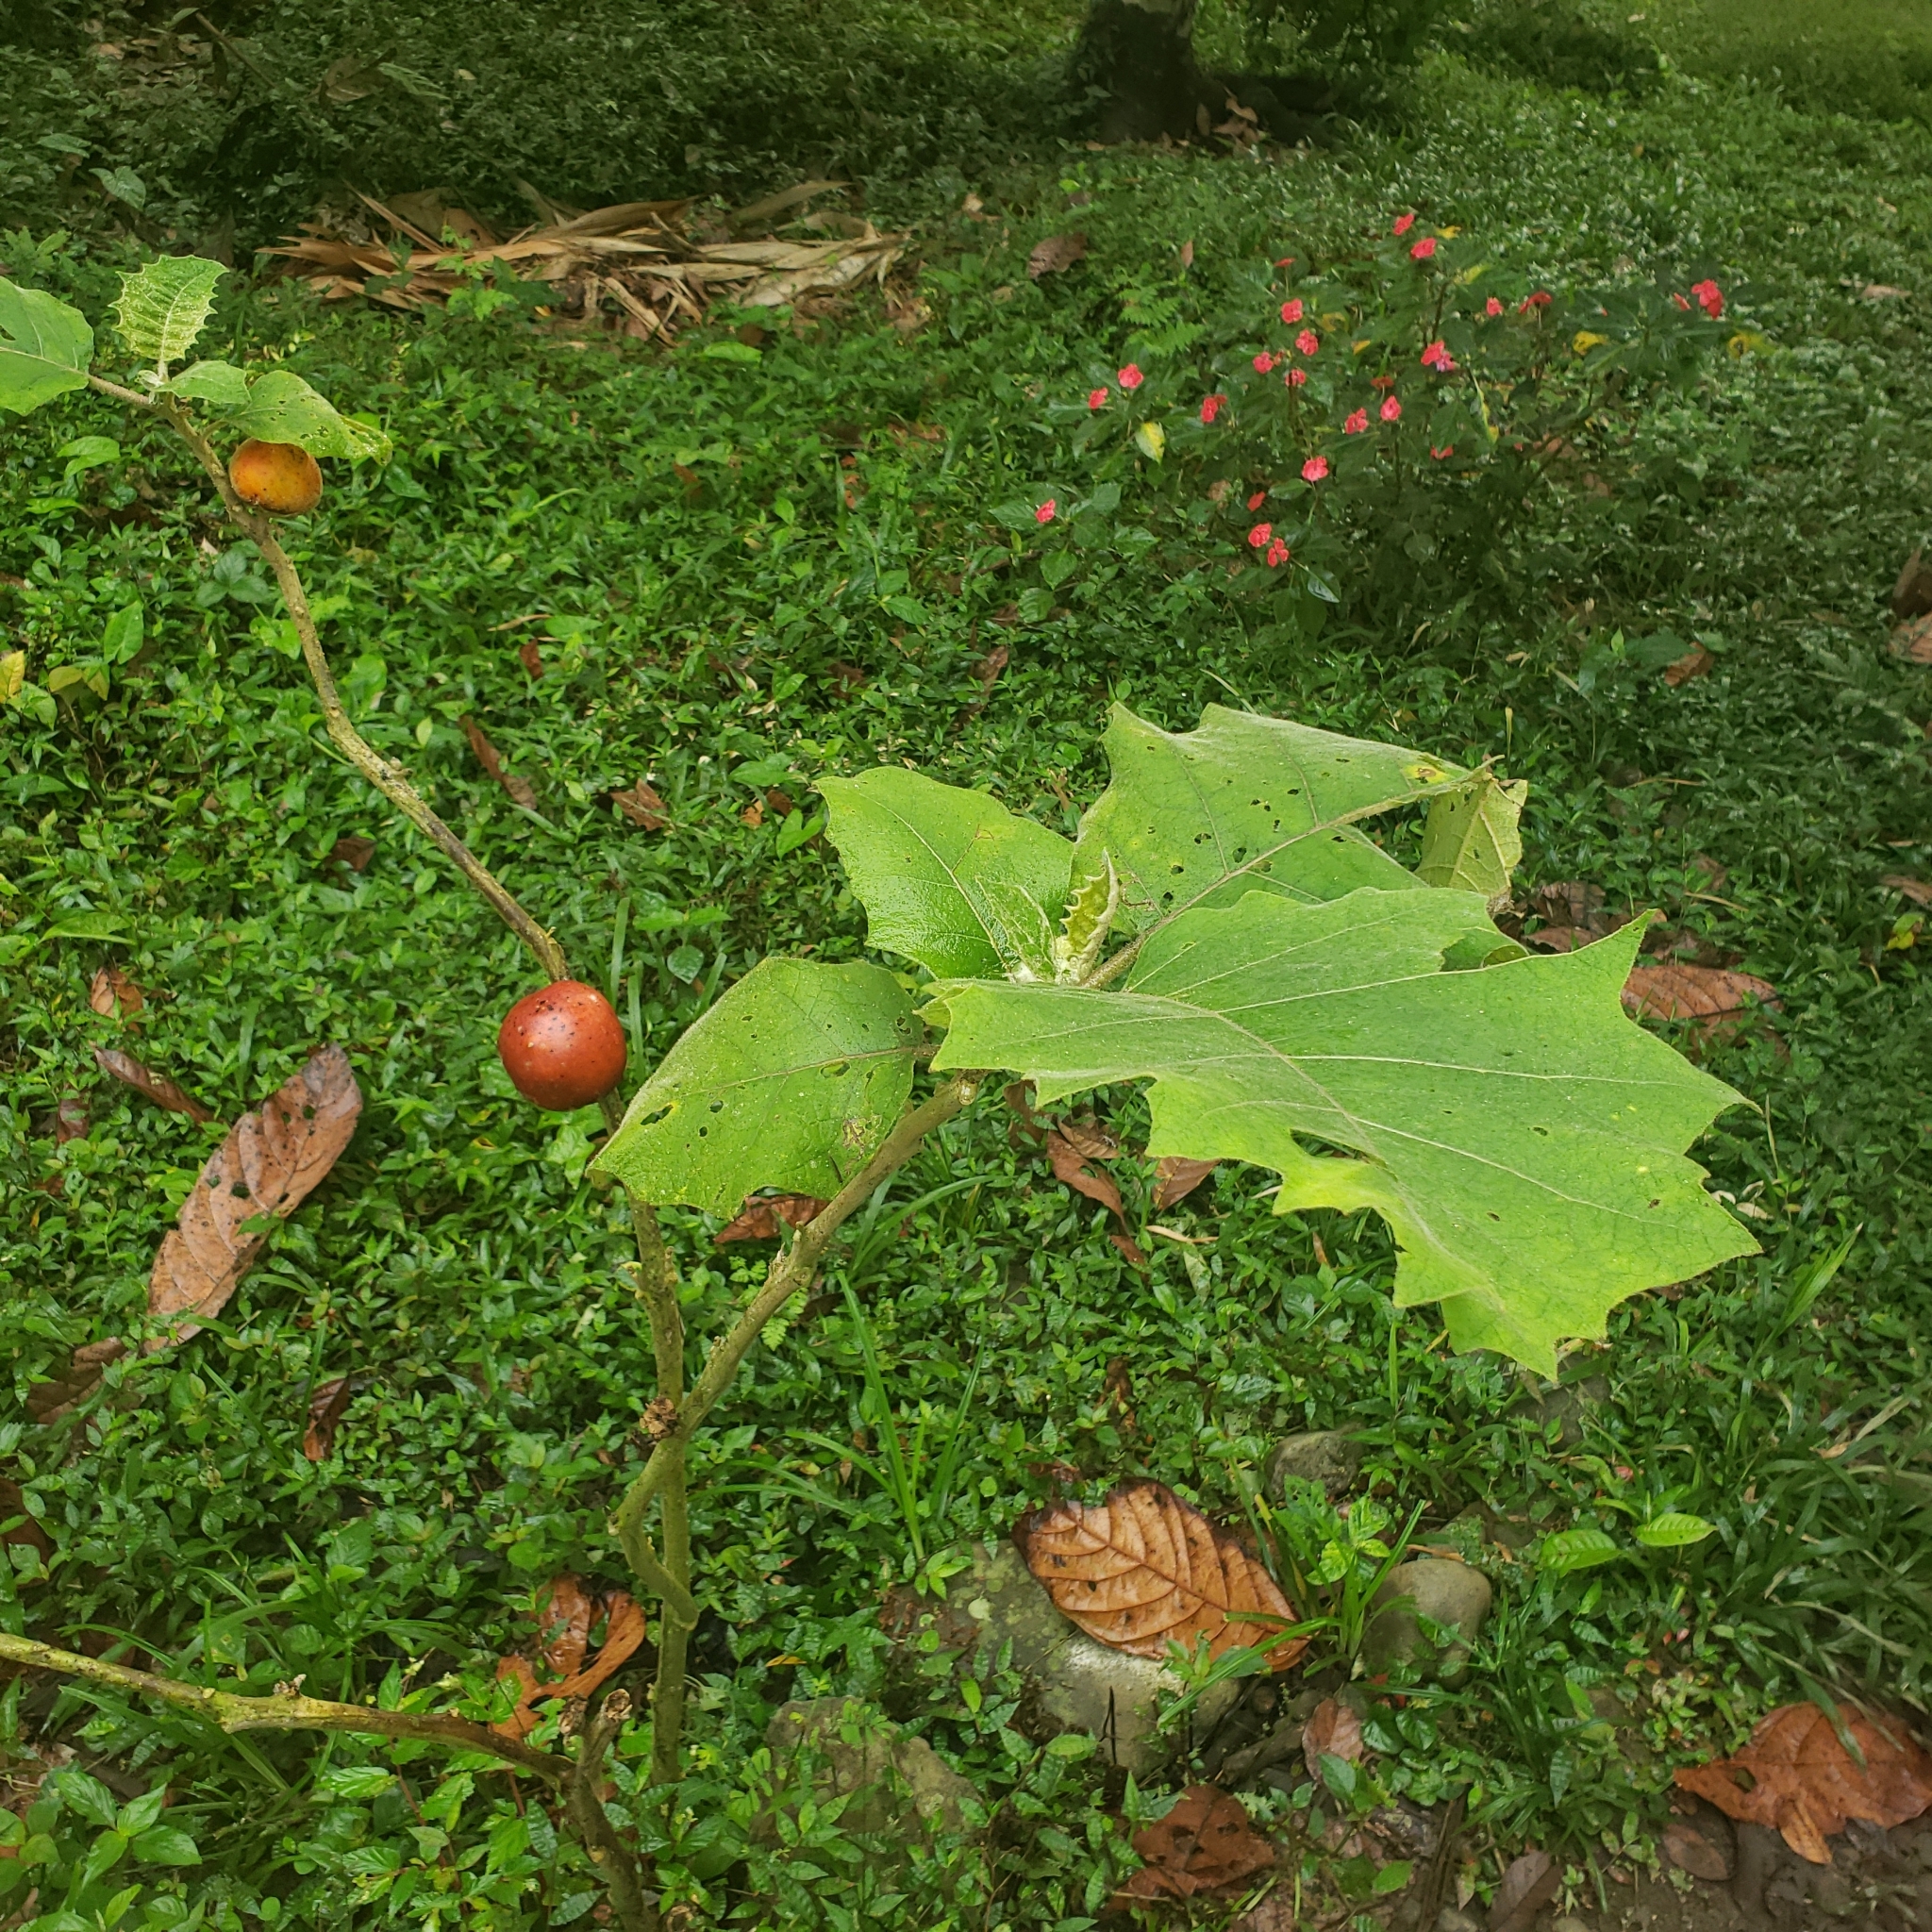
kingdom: Plantae
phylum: Tracheophyta
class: Magnoliopsida
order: Solanales
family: Solanaceae
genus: Solanum
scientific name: Solanum sessiliflorum
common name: Orinoco-apple
